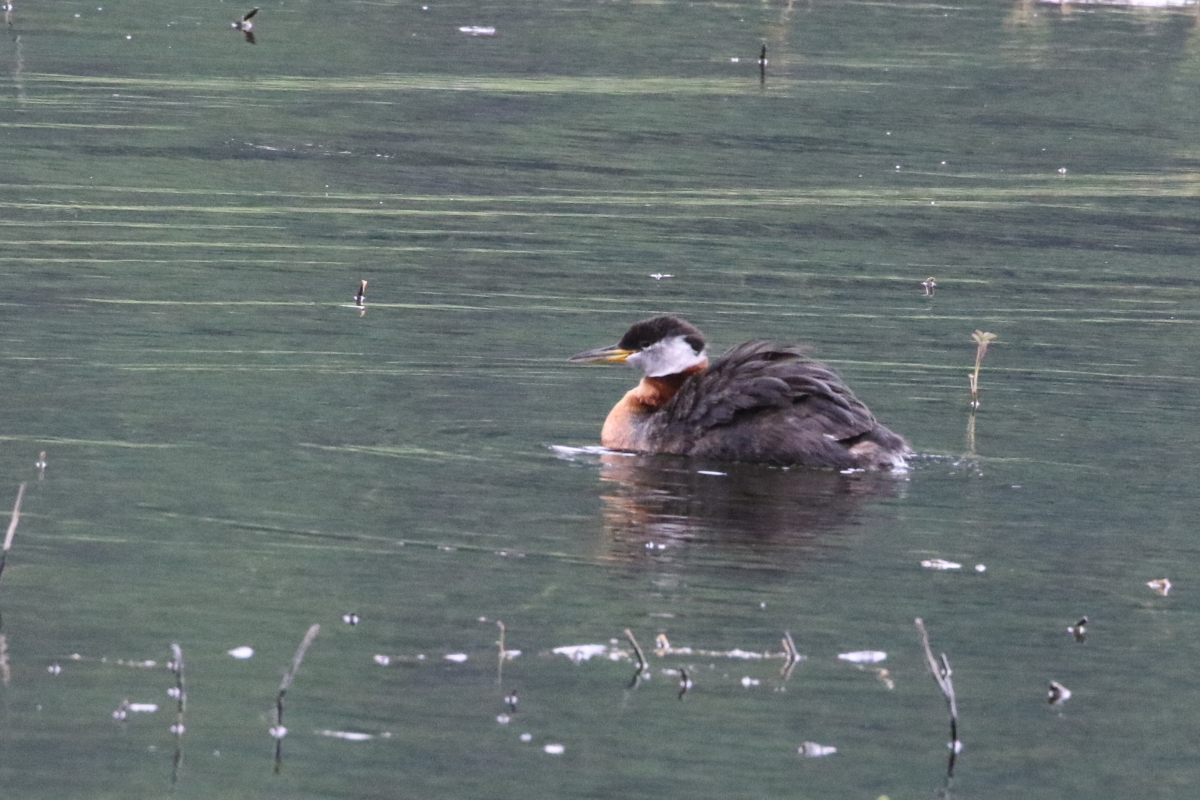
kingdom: Animalia
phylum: Chordata
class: Aves
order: Podicipediformes
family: Podicipedidae
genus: Podiceps
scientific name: Podiceps grisegena
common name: Red-necked grebe
